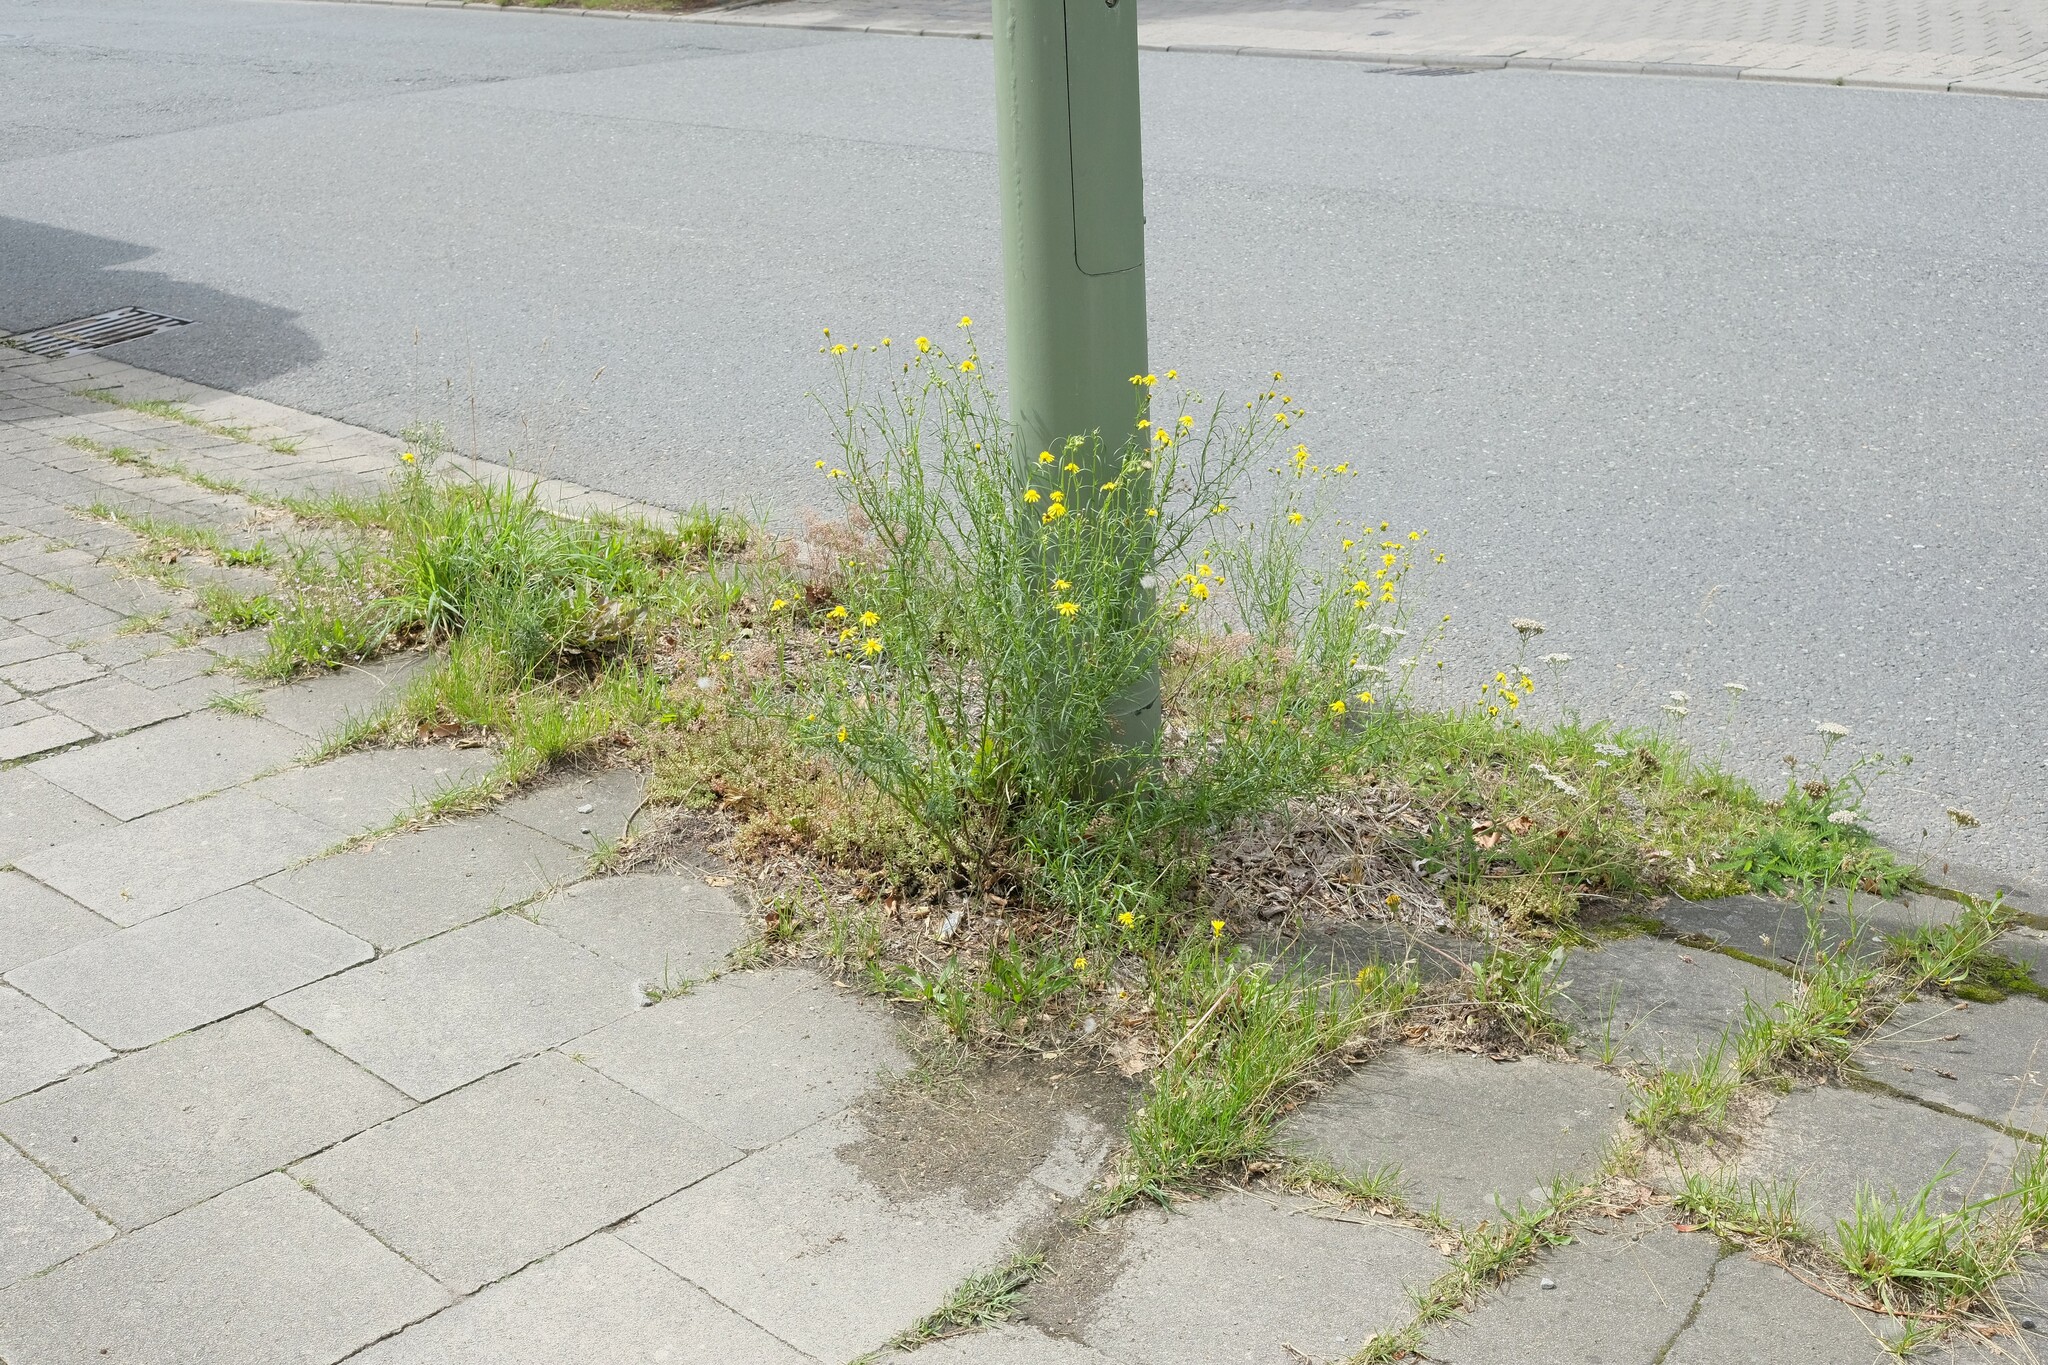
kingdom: Plantae
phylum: Tracheophyta
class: Magnoliopsida
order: Asterales
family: Asteraceae
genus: Senecio
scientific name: Senecio inaequidens
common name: Narrow-leaved ragwort
